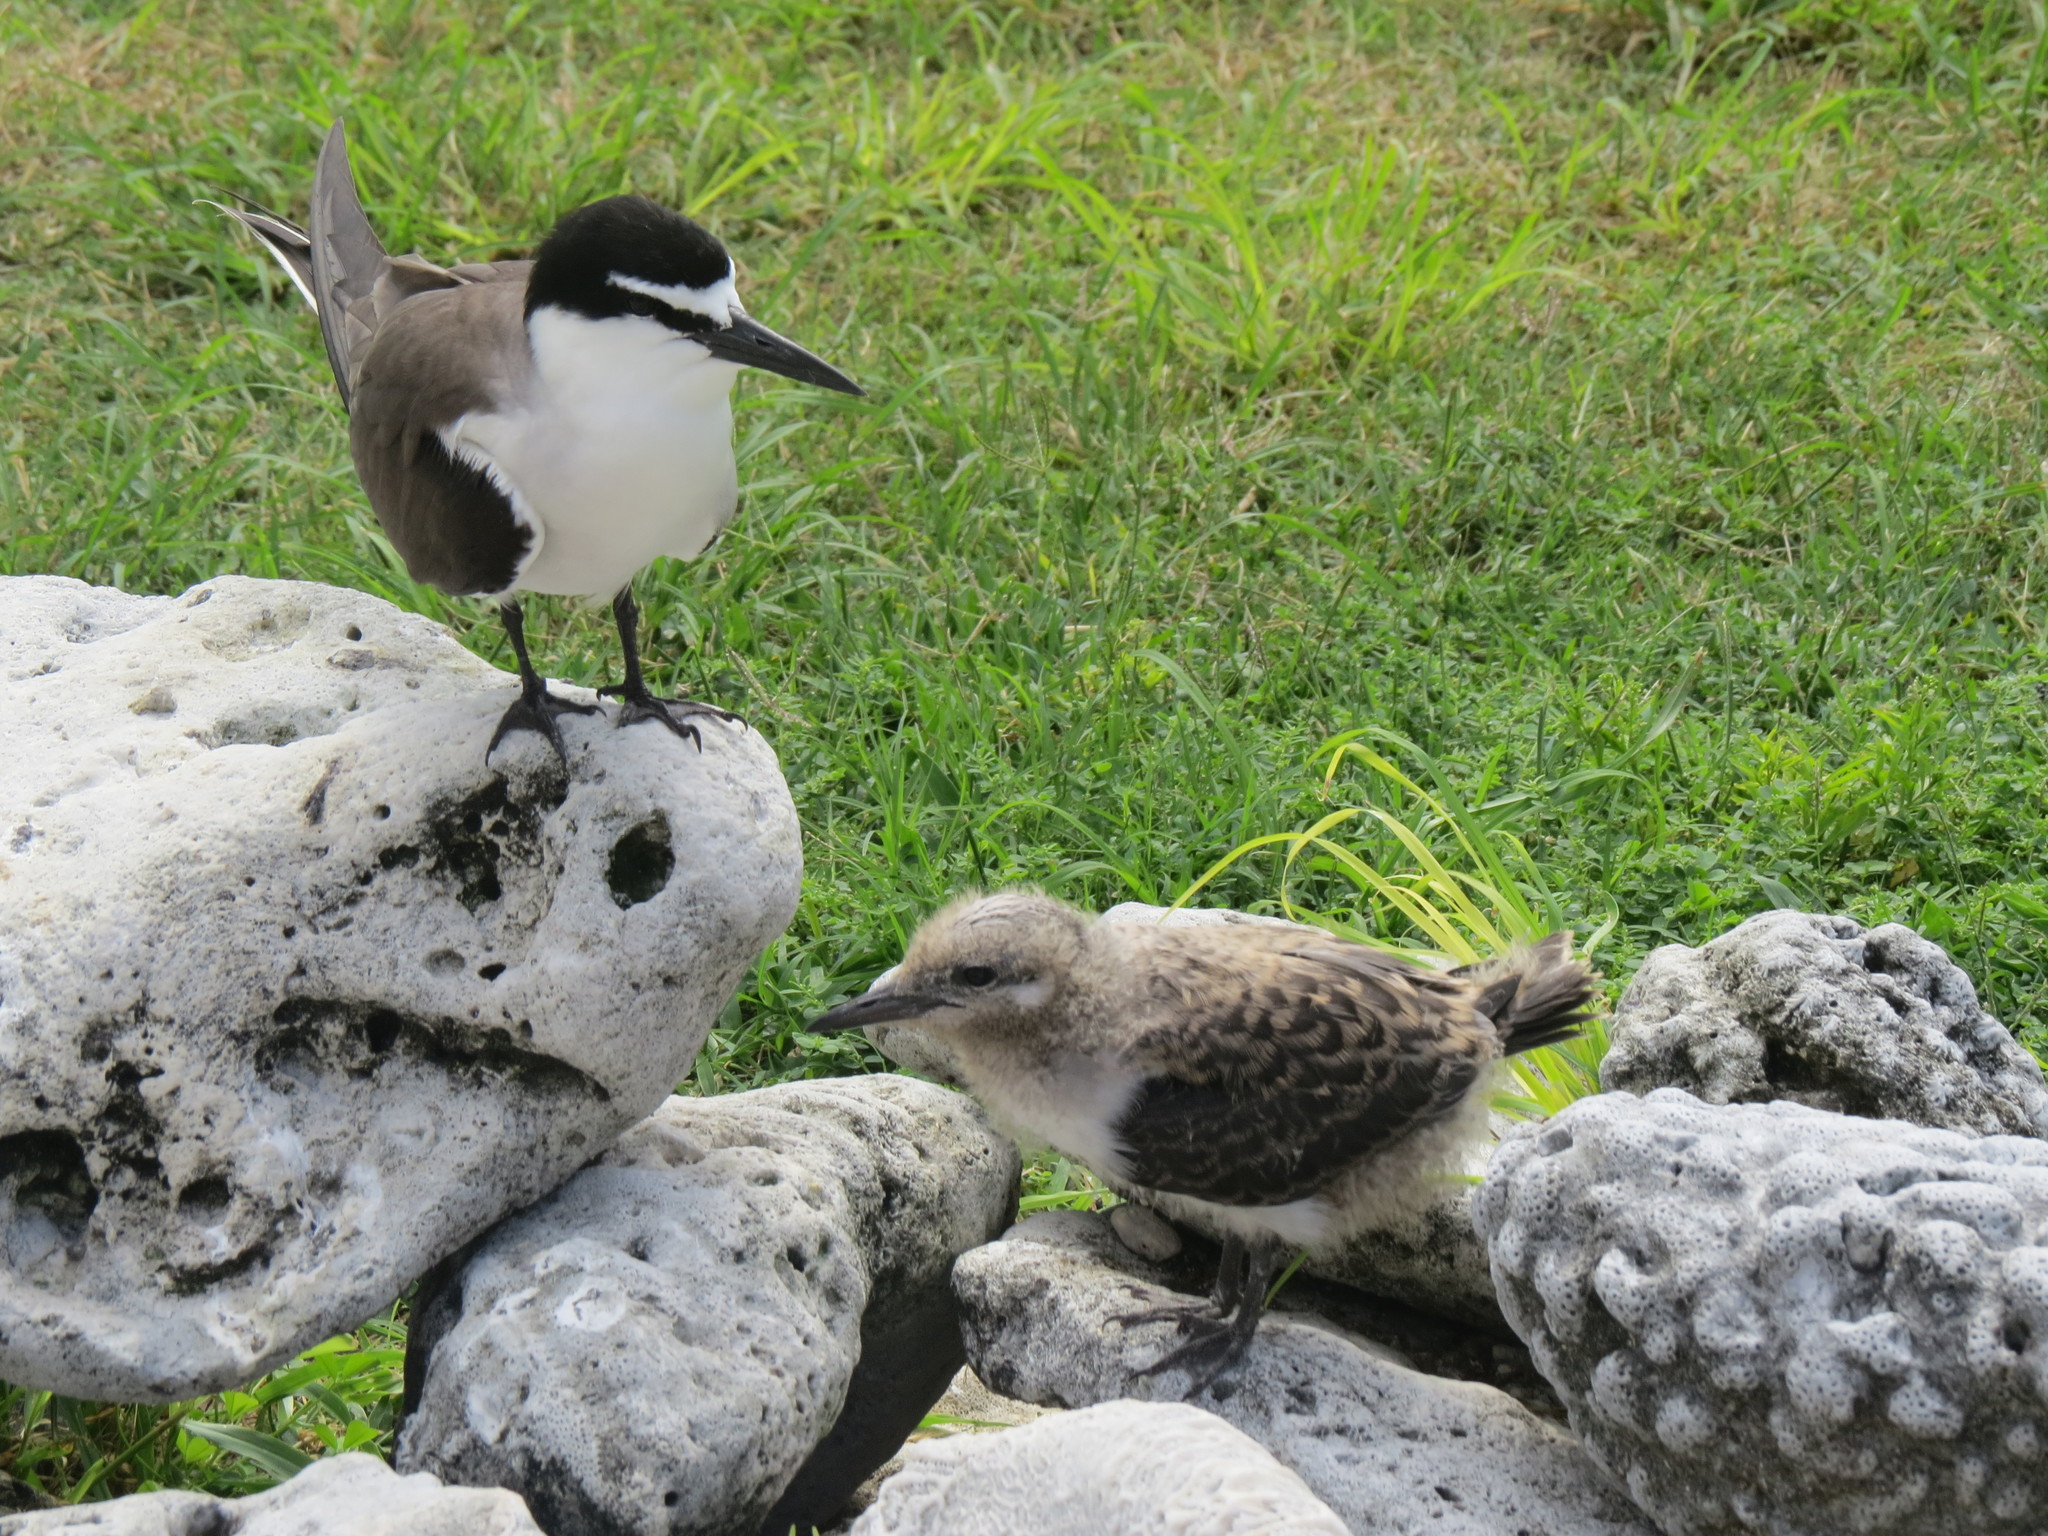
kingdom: Animalia
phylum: Chordata
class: Aves
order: Charadriiformes
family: Laridae
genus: Onychoprion
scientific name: Onychoprion anaethetus
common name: Bridled tern
